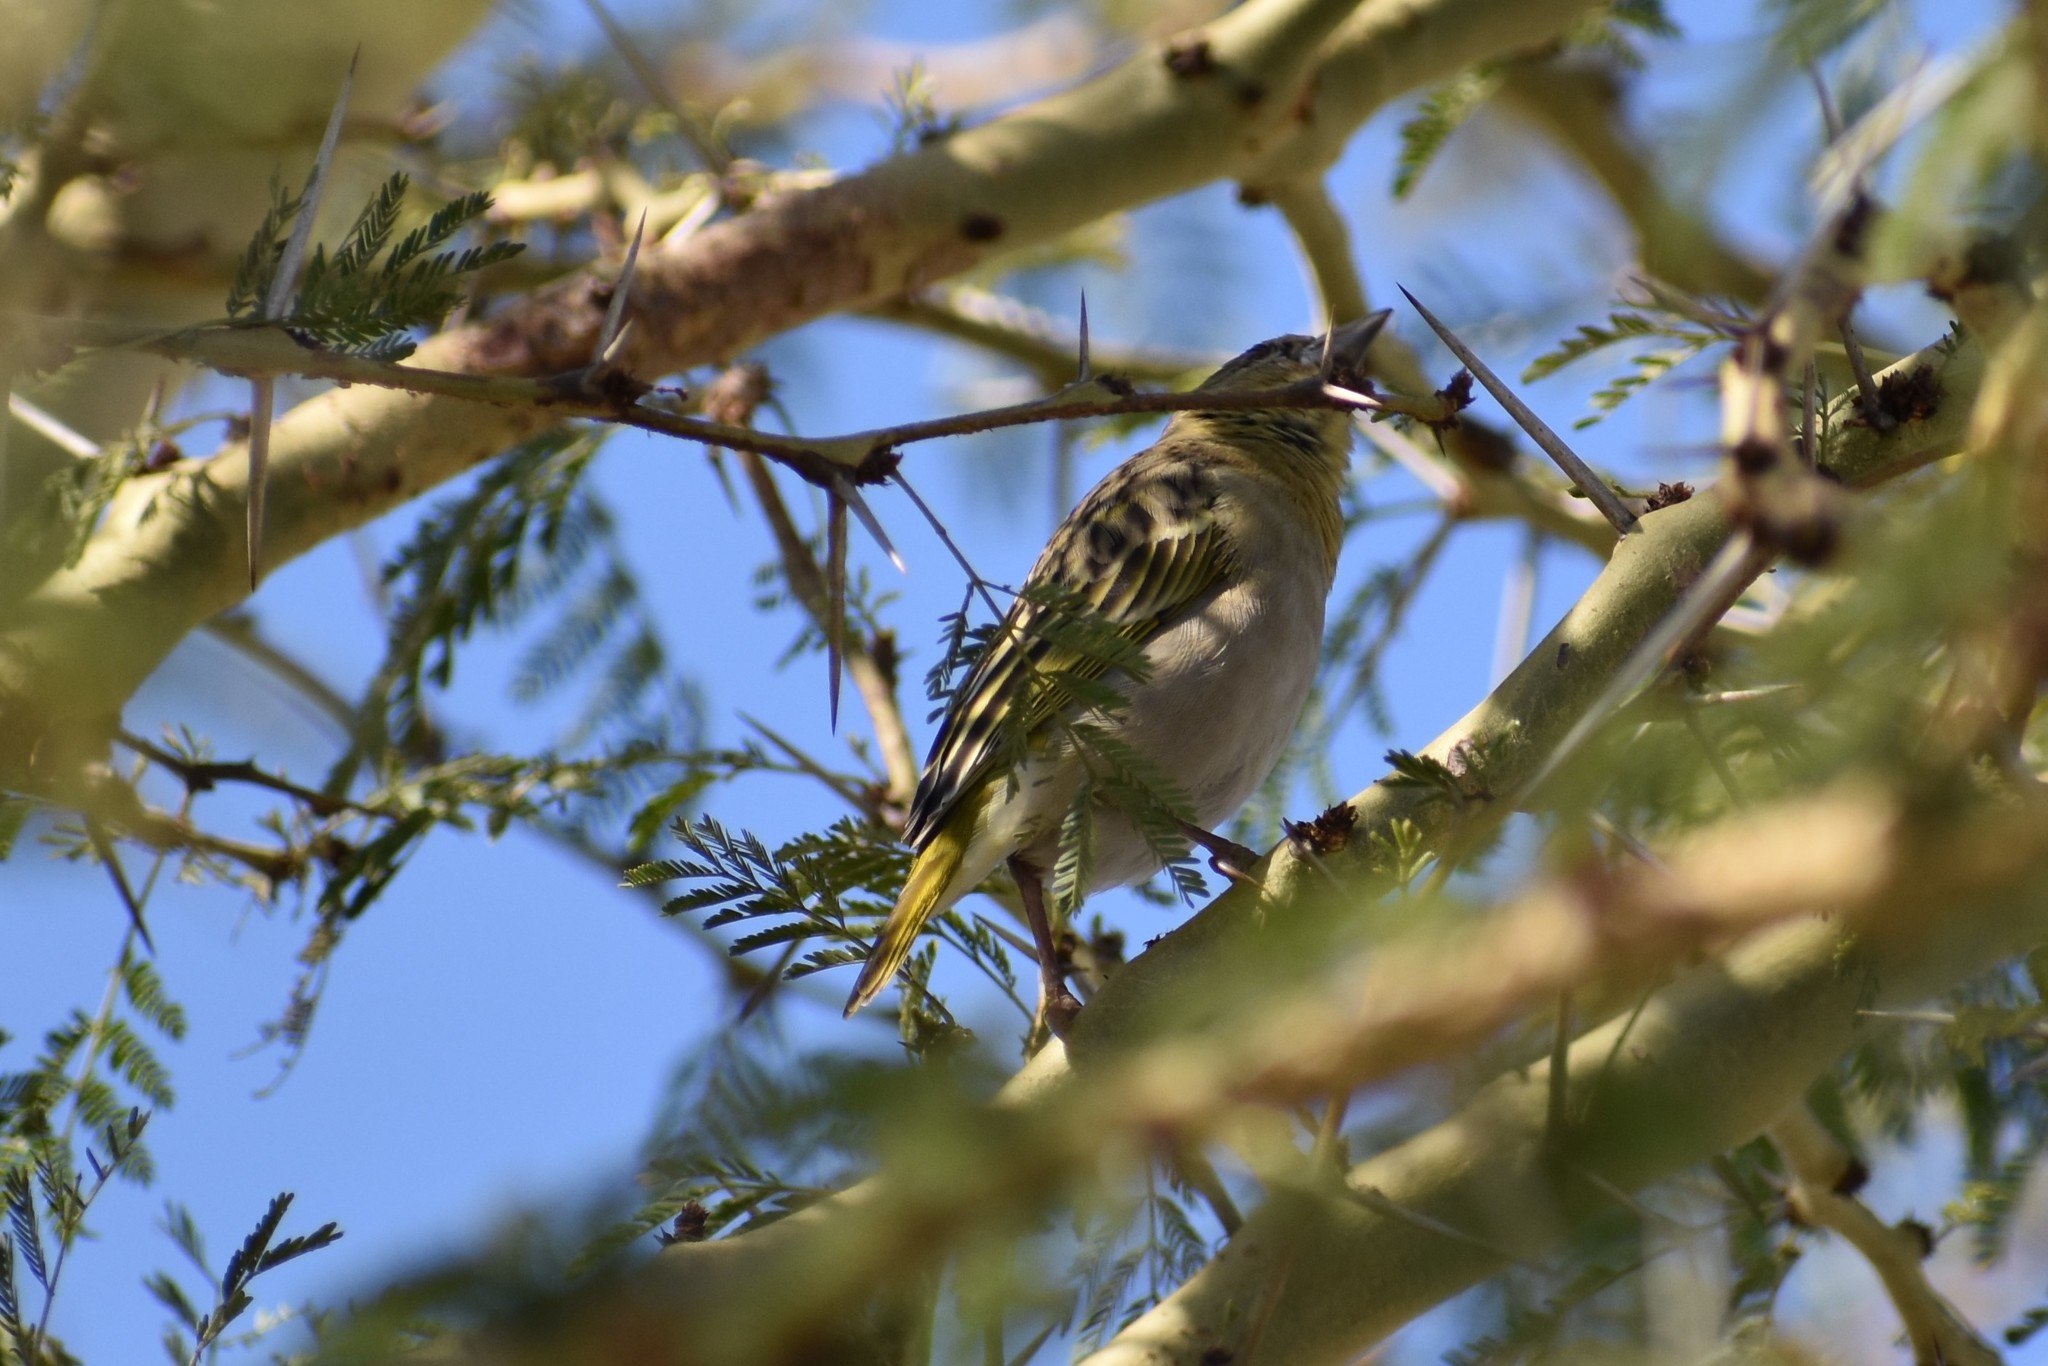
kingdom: Animalia
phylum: Chordata
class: Aves
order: Passeriformes
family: Ploceidae
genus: Ploceus
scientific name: Ploceus cucullatus
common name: Village weaver
